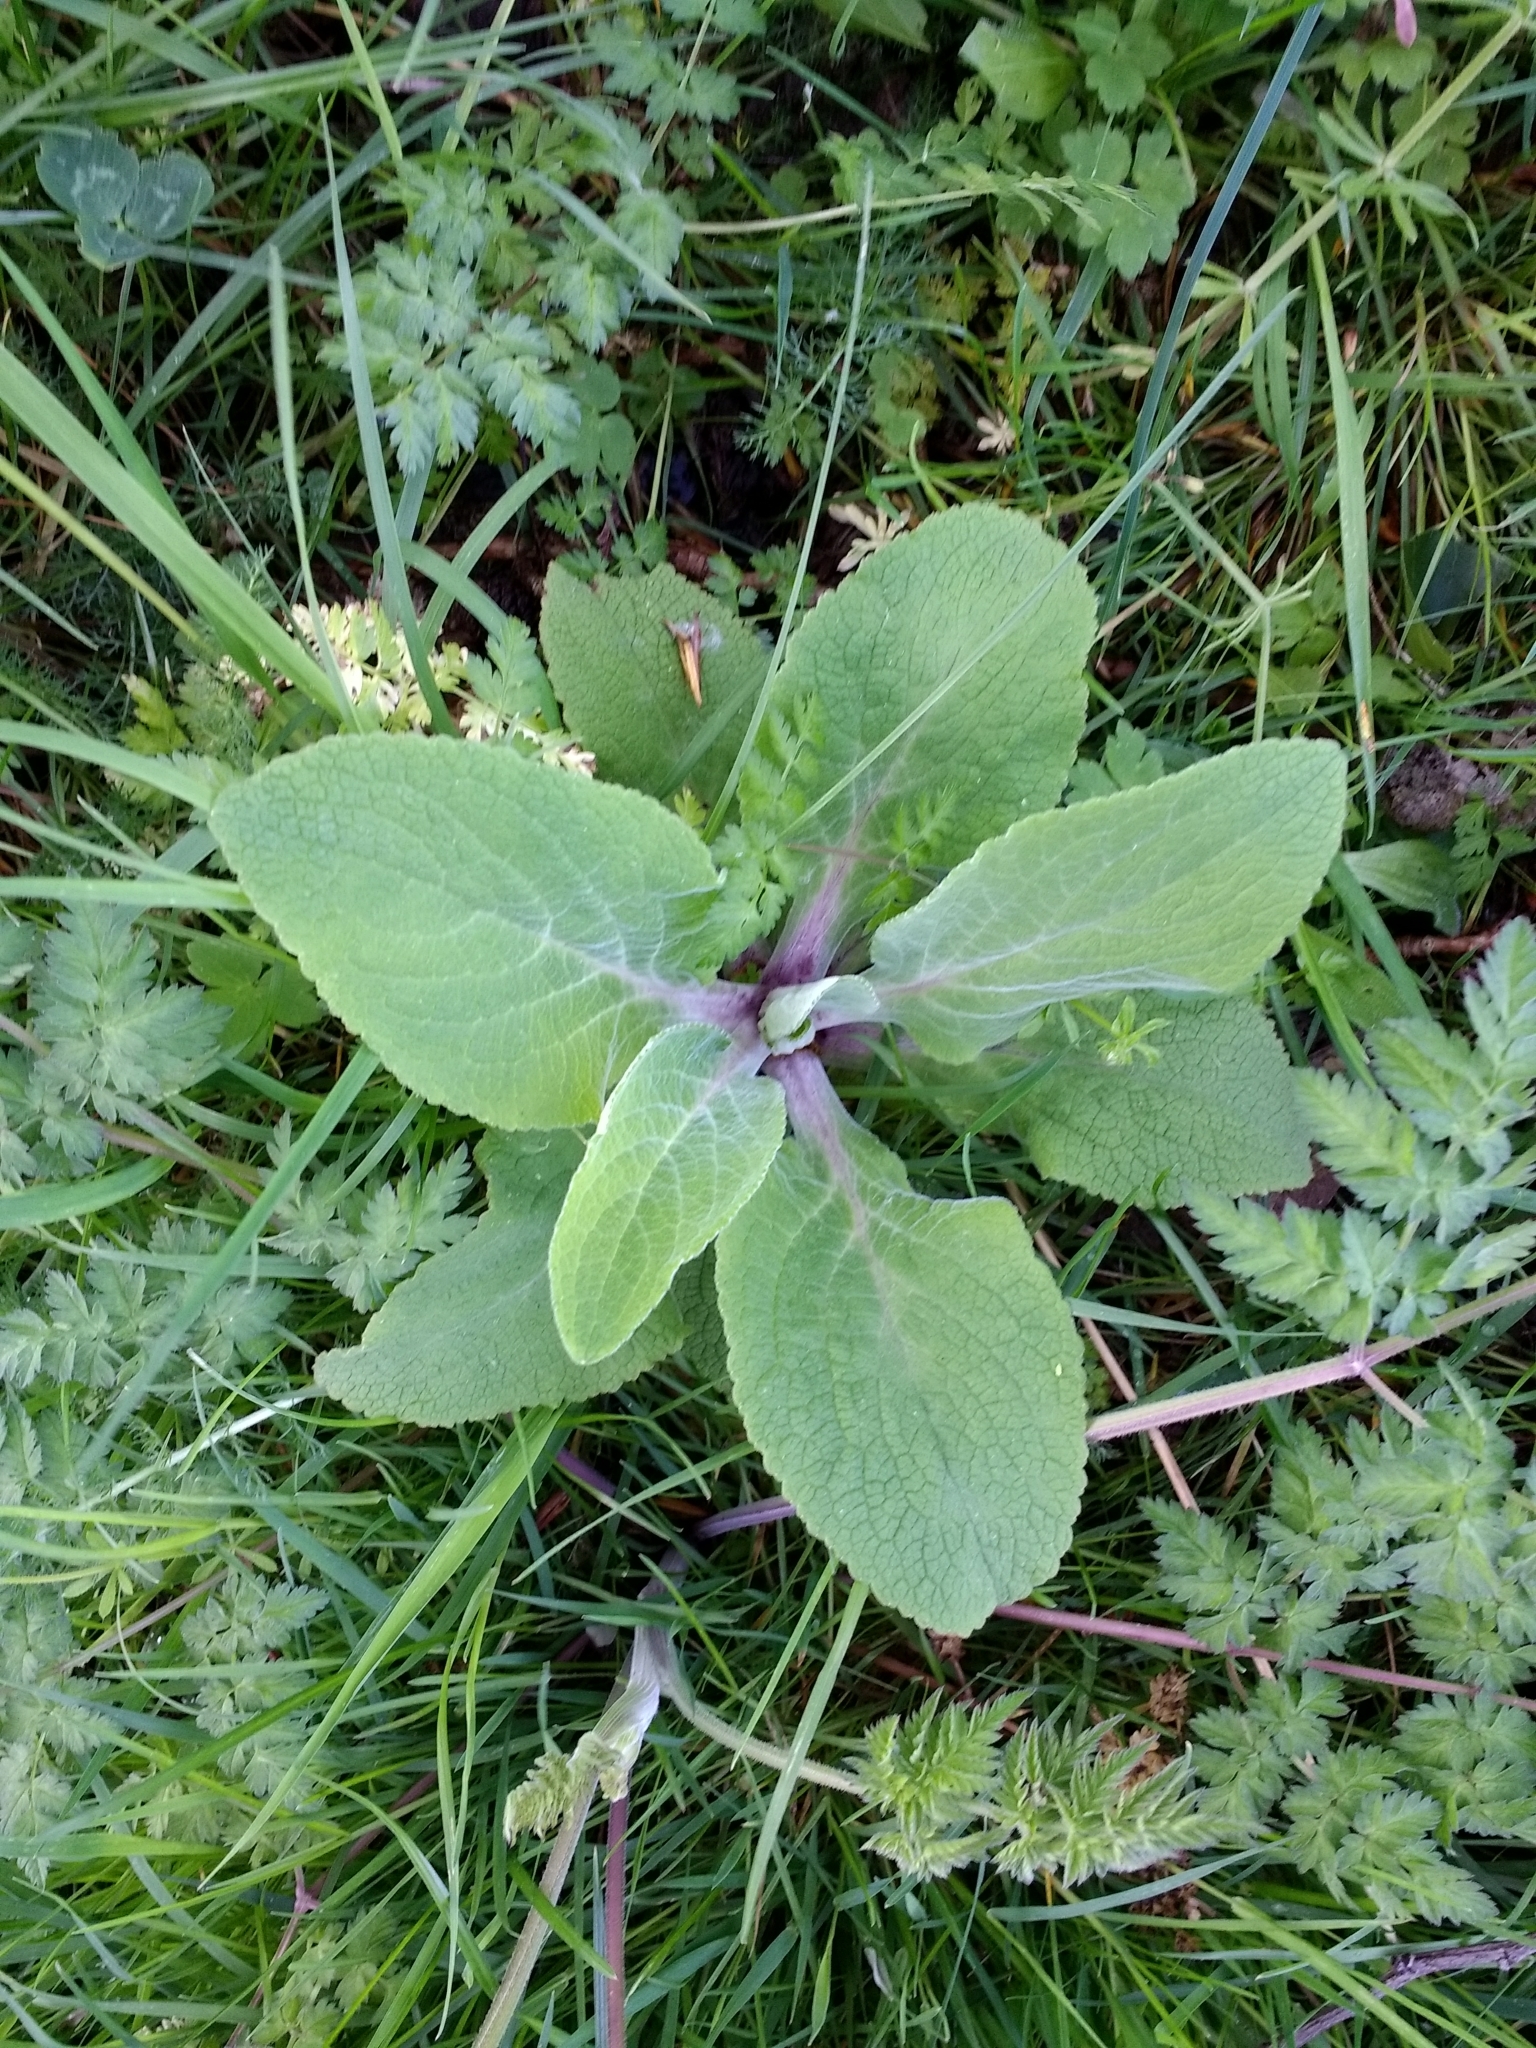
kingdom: Plantae
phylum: Tracheophyta
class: Magnoliopsida
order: Lamiales
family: Plantaginaceae
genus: Digitalis
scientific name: Digitalis purpurea
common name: Foxglove
